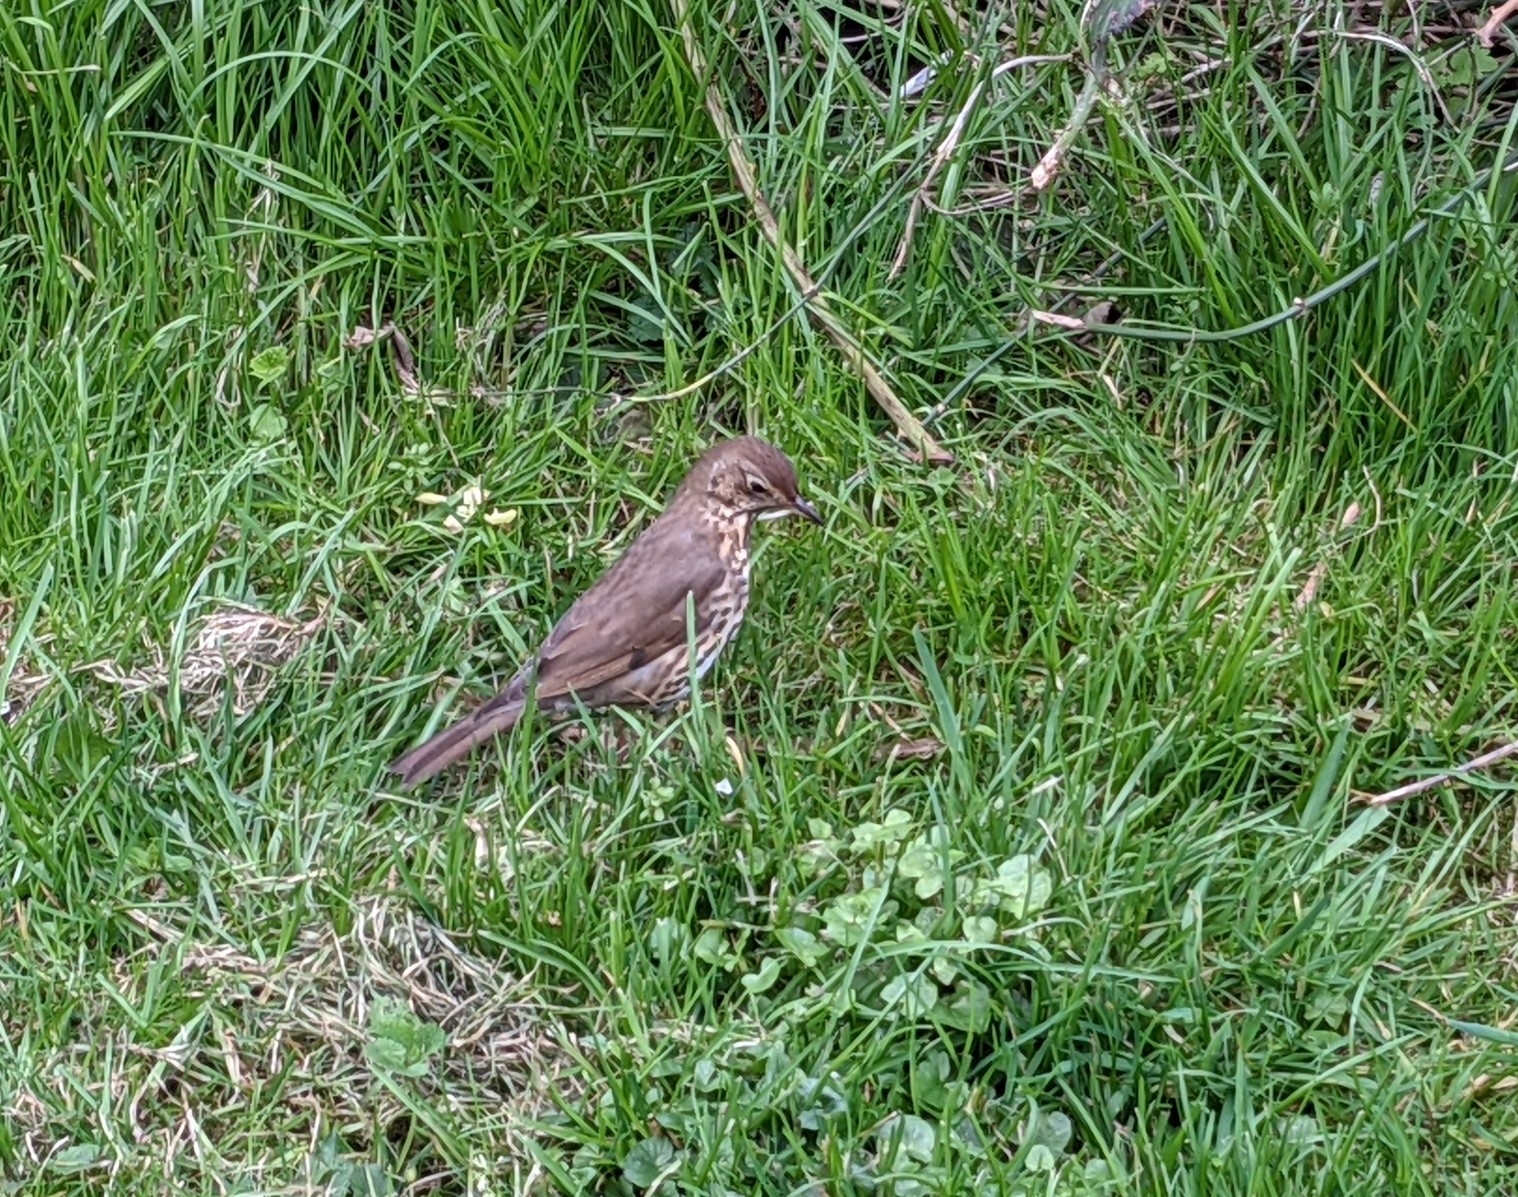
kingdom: Animalia
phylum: Chordata
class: Aves
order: Passeriformes
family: Turdidae
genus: Turdus
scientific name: Turdus philomelos
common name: Song thrush
